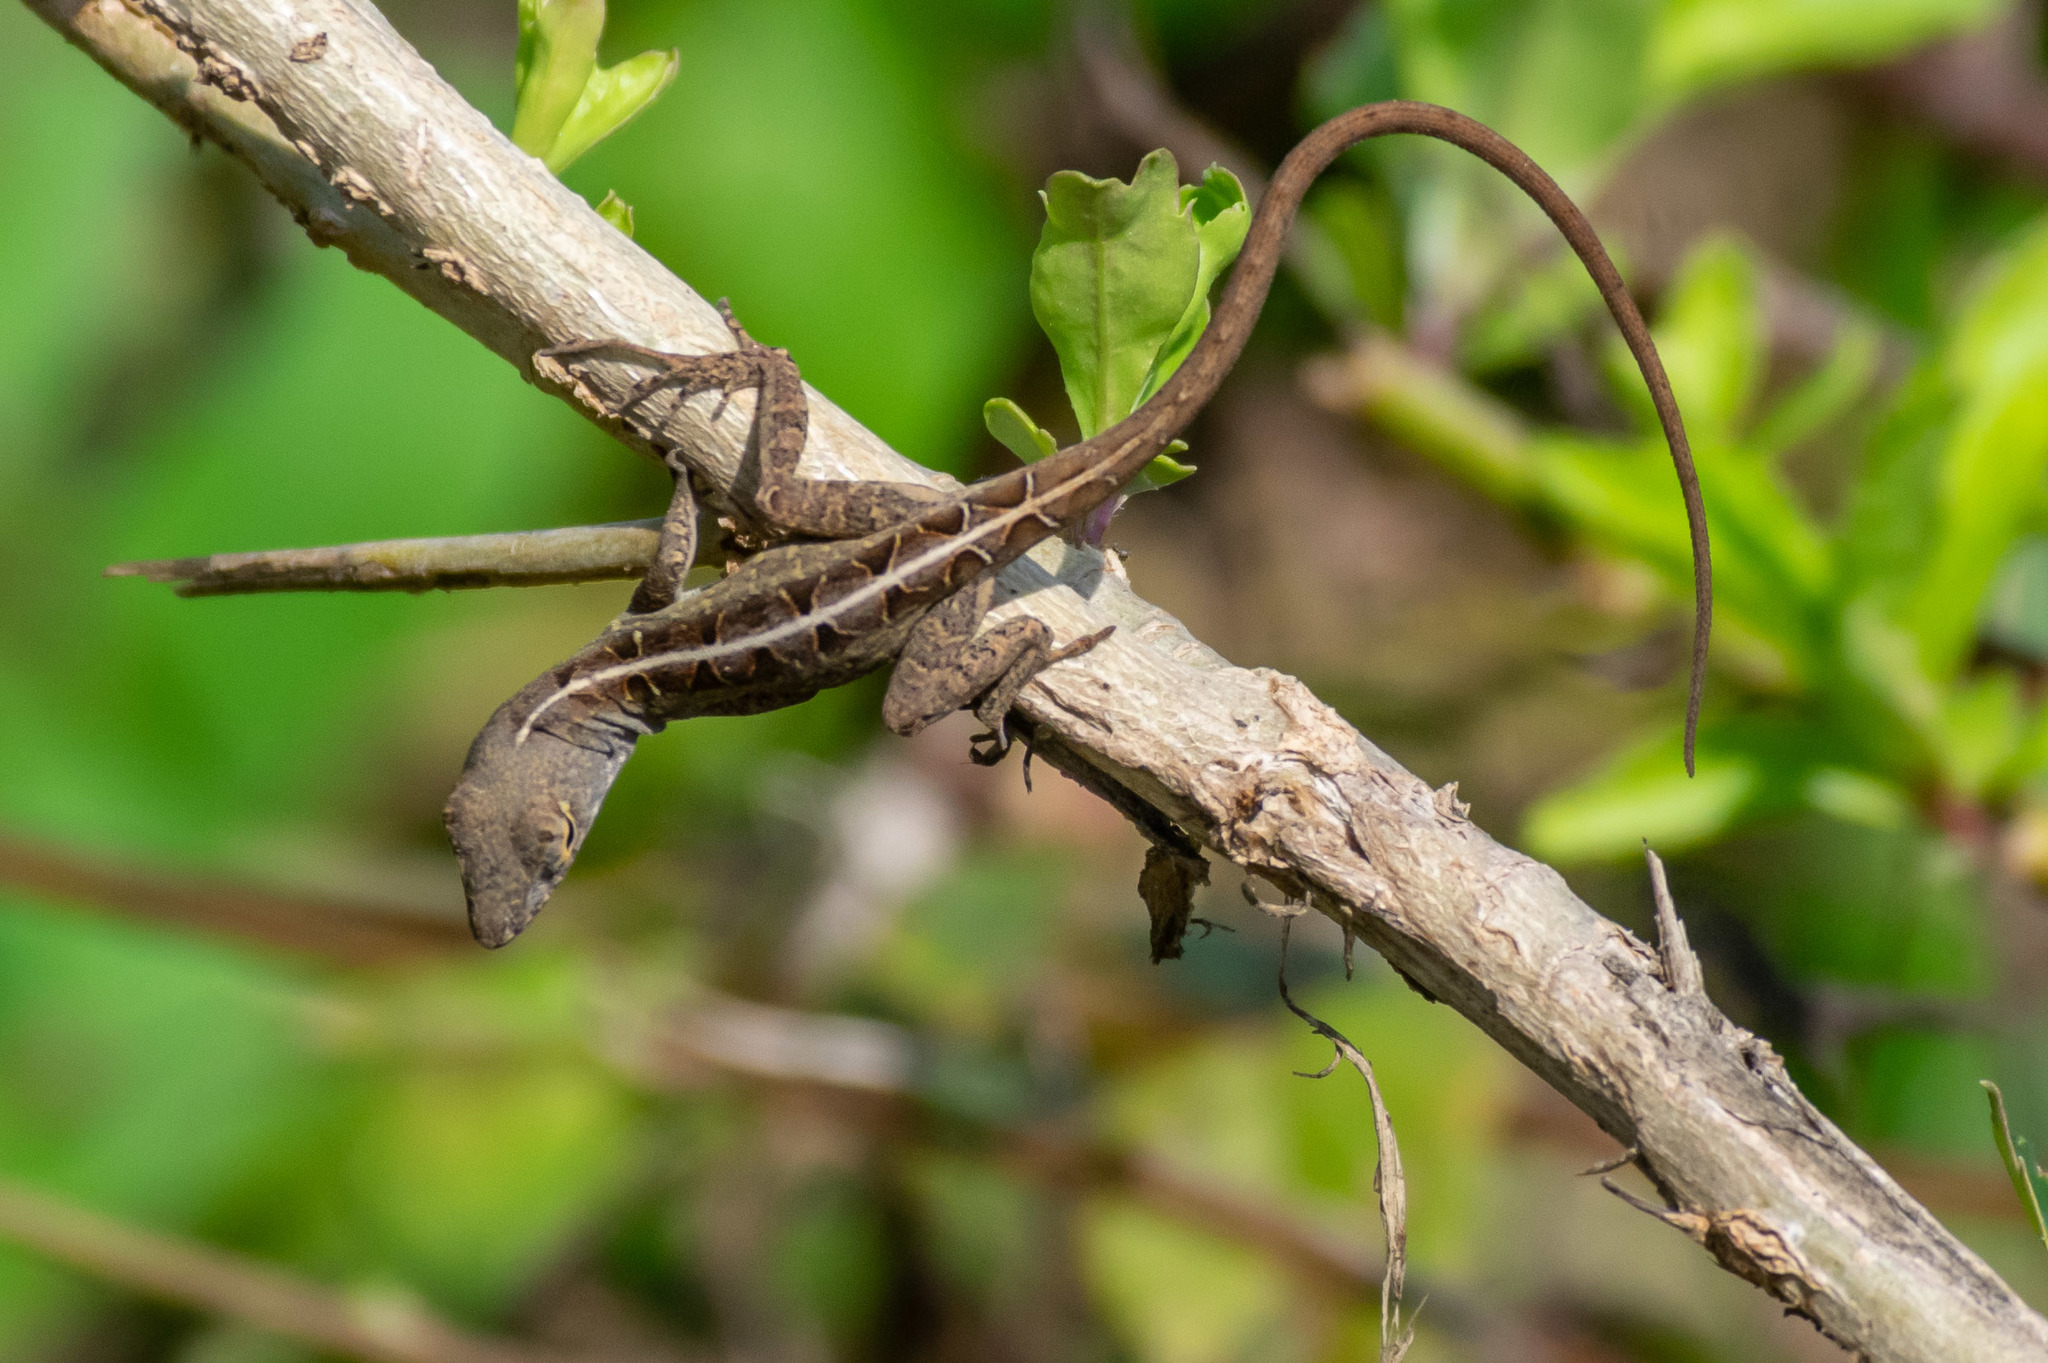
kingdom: Animalia
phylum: Chordata
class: Squamata
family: Dactyloidae
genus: Anolis
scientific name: Anolis sagrei
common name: Brown anole
